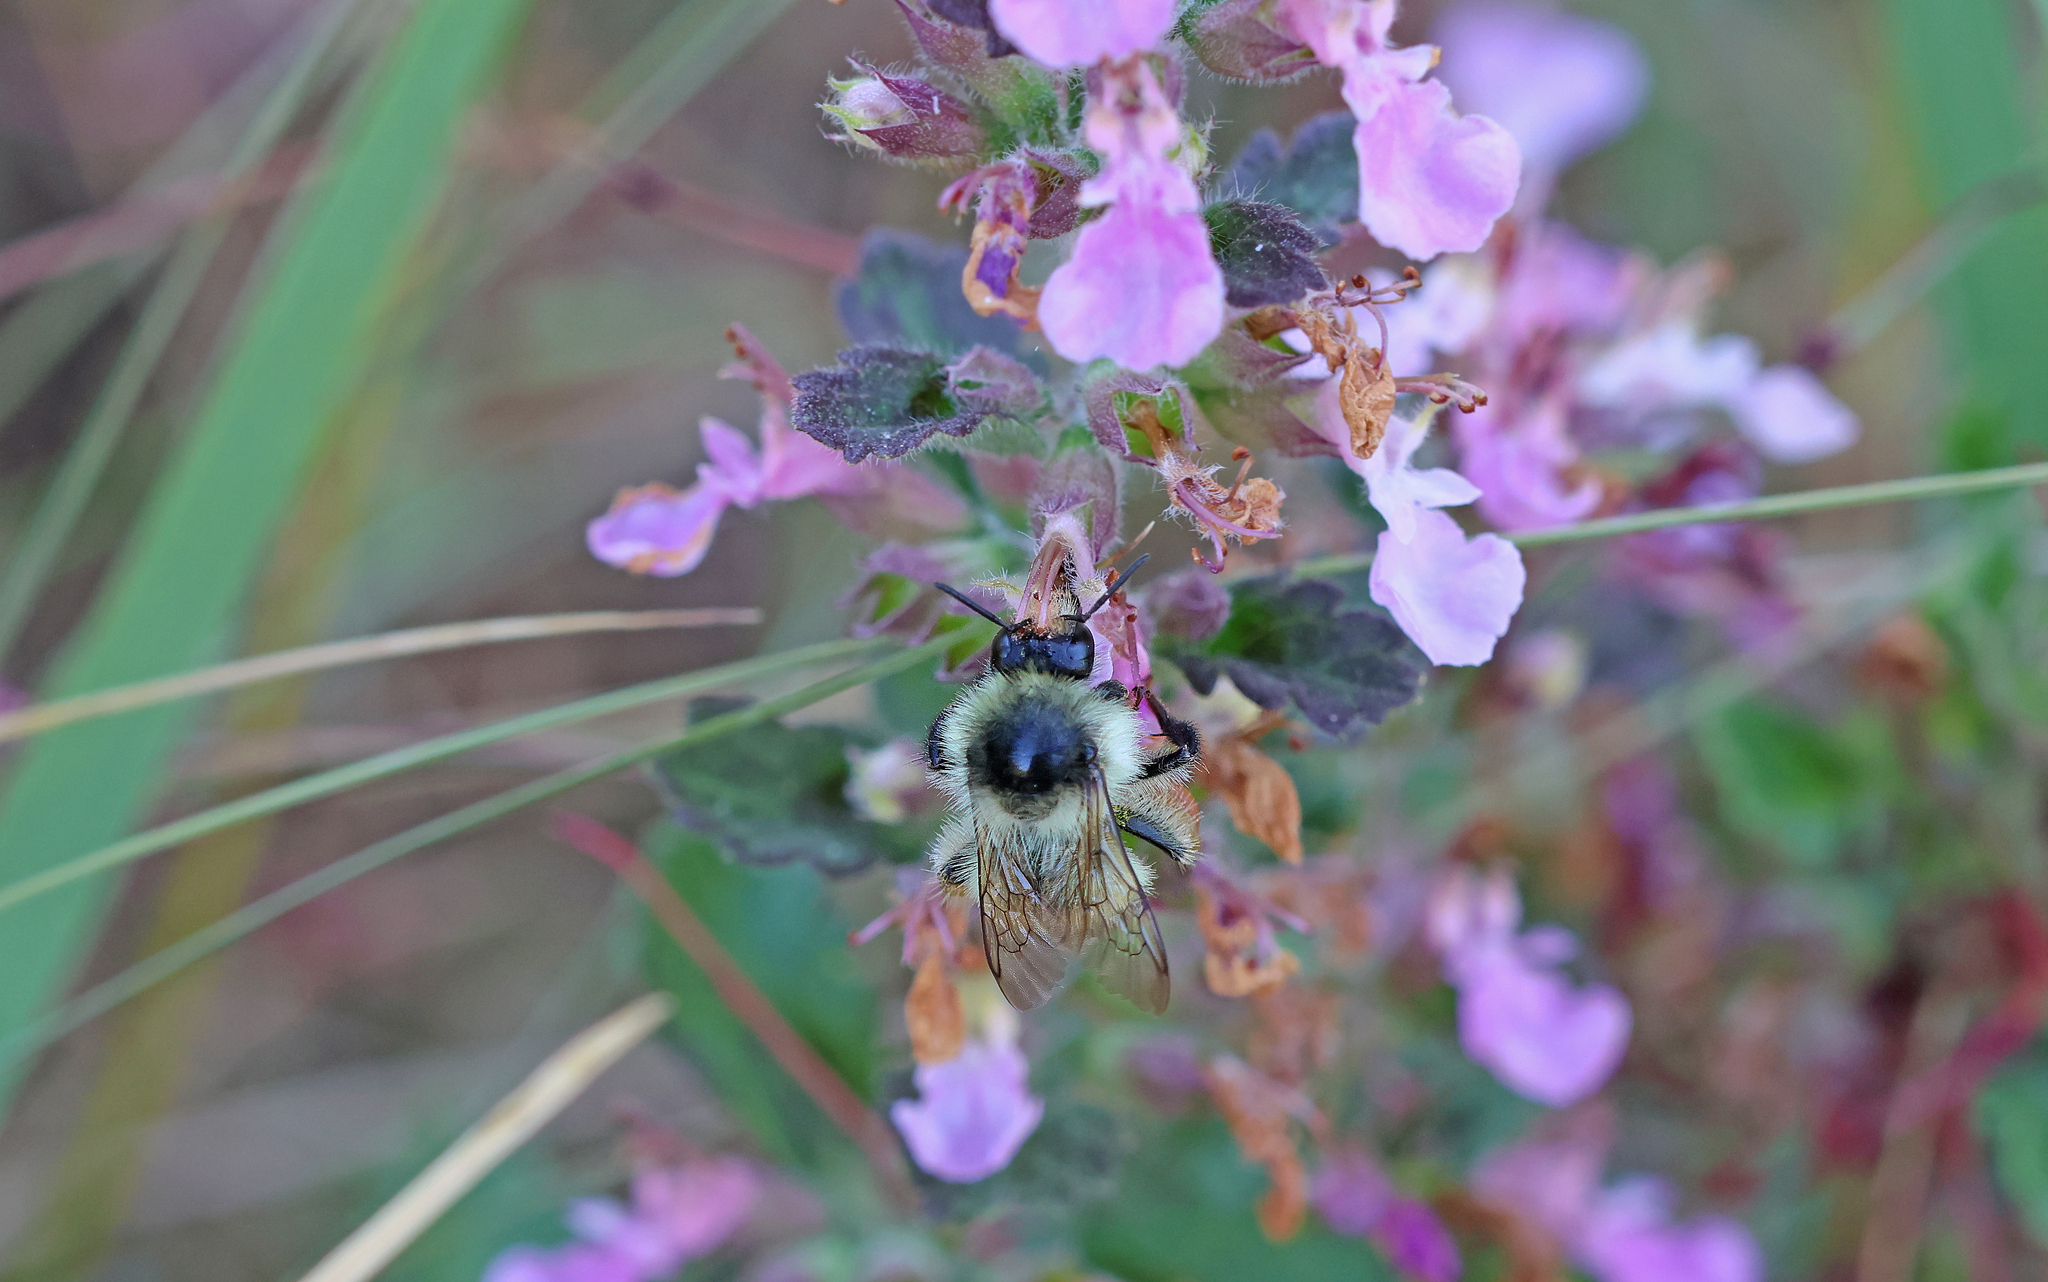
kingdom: Animalia
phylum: Arthropoda
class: Insecta
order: Hymenoptera
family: Apidae
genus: Bombus
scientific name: Bombus sylvarum
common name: Shrill carder bee
